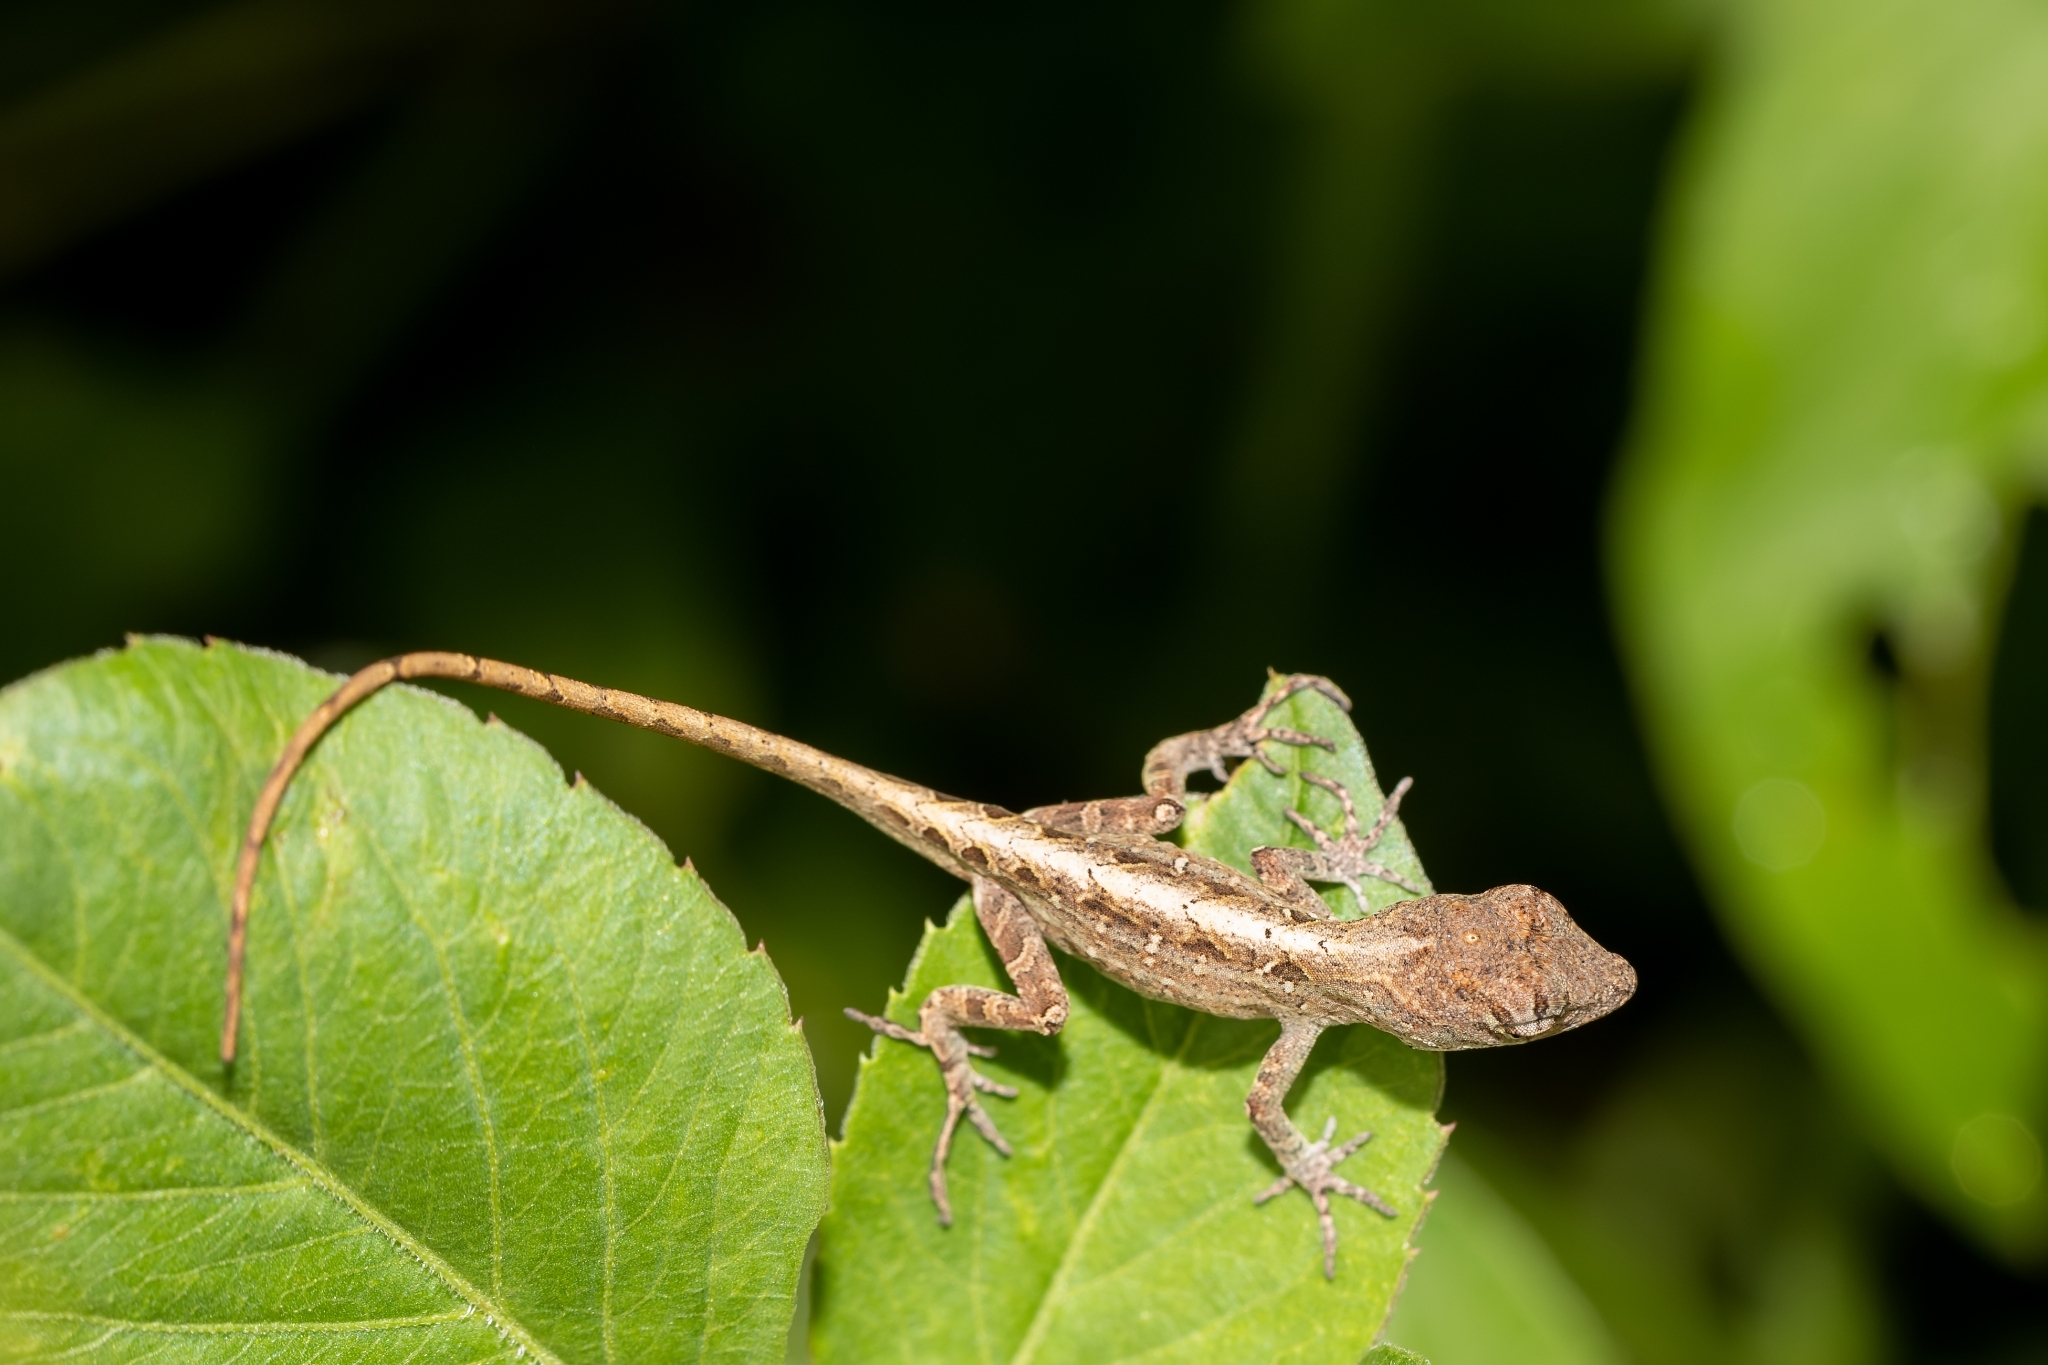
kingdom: Animalia
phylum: Chordata
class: Squamata
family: Dactyloidae
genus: Anolis
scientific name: Anolis sagrei
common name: Brown anole
